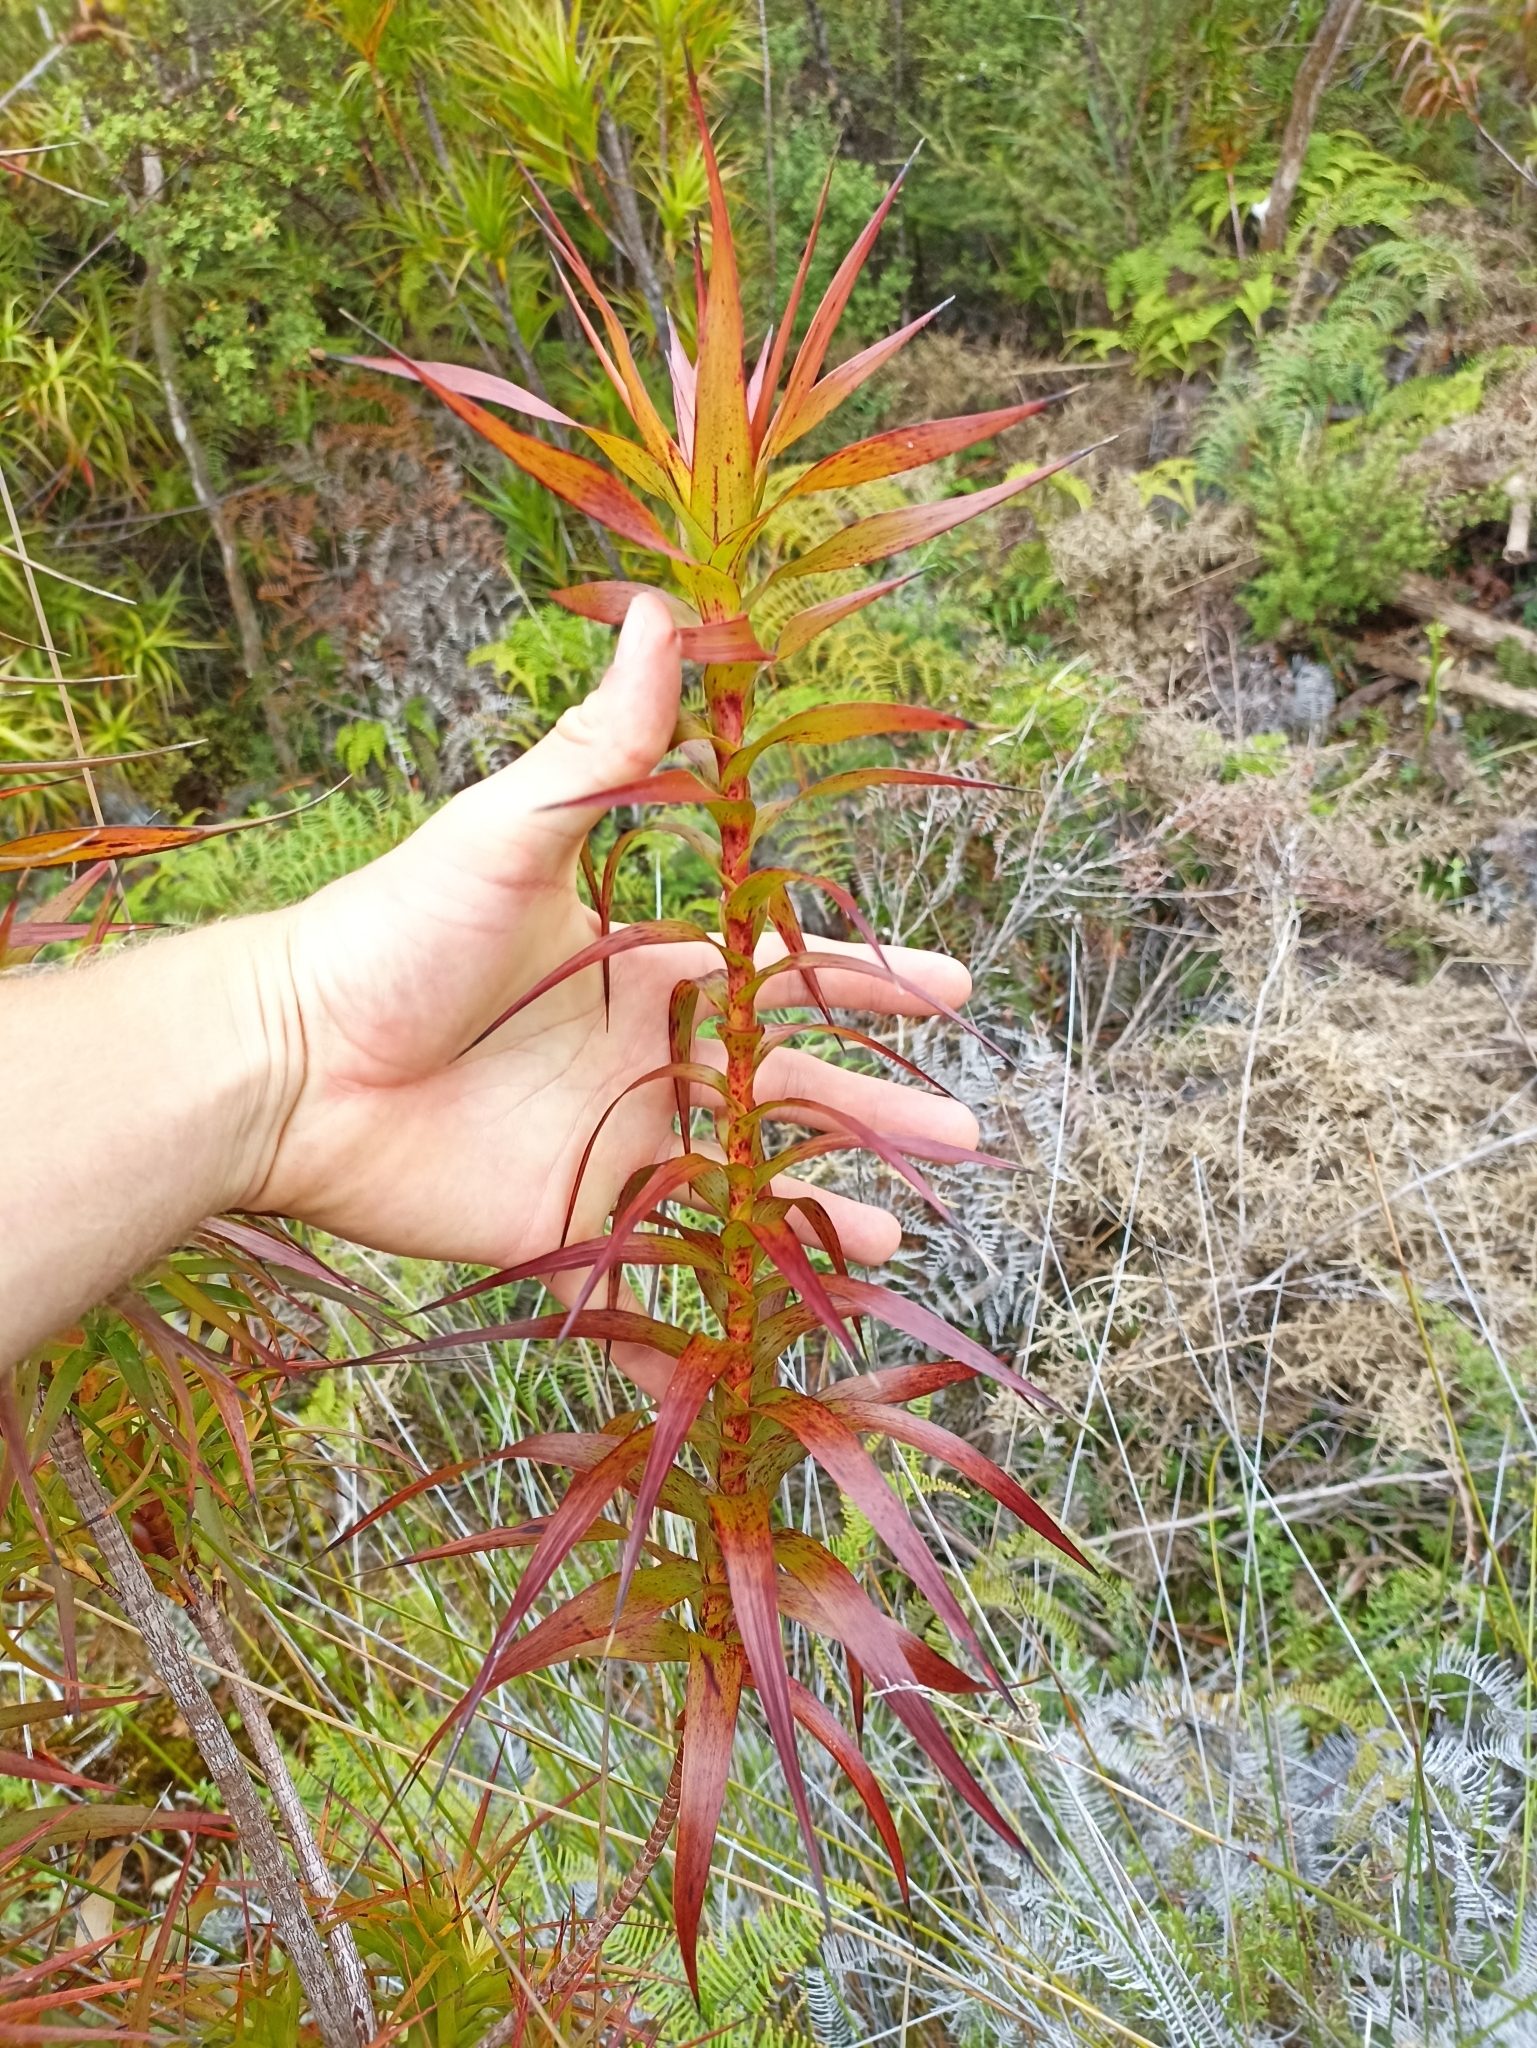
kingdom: Plantae
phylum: Tracheophyta
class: Magnoliopsida
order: Ericales
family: Ericaceae
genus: Dracophyllum
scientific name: Dracophyllum sinclairii
